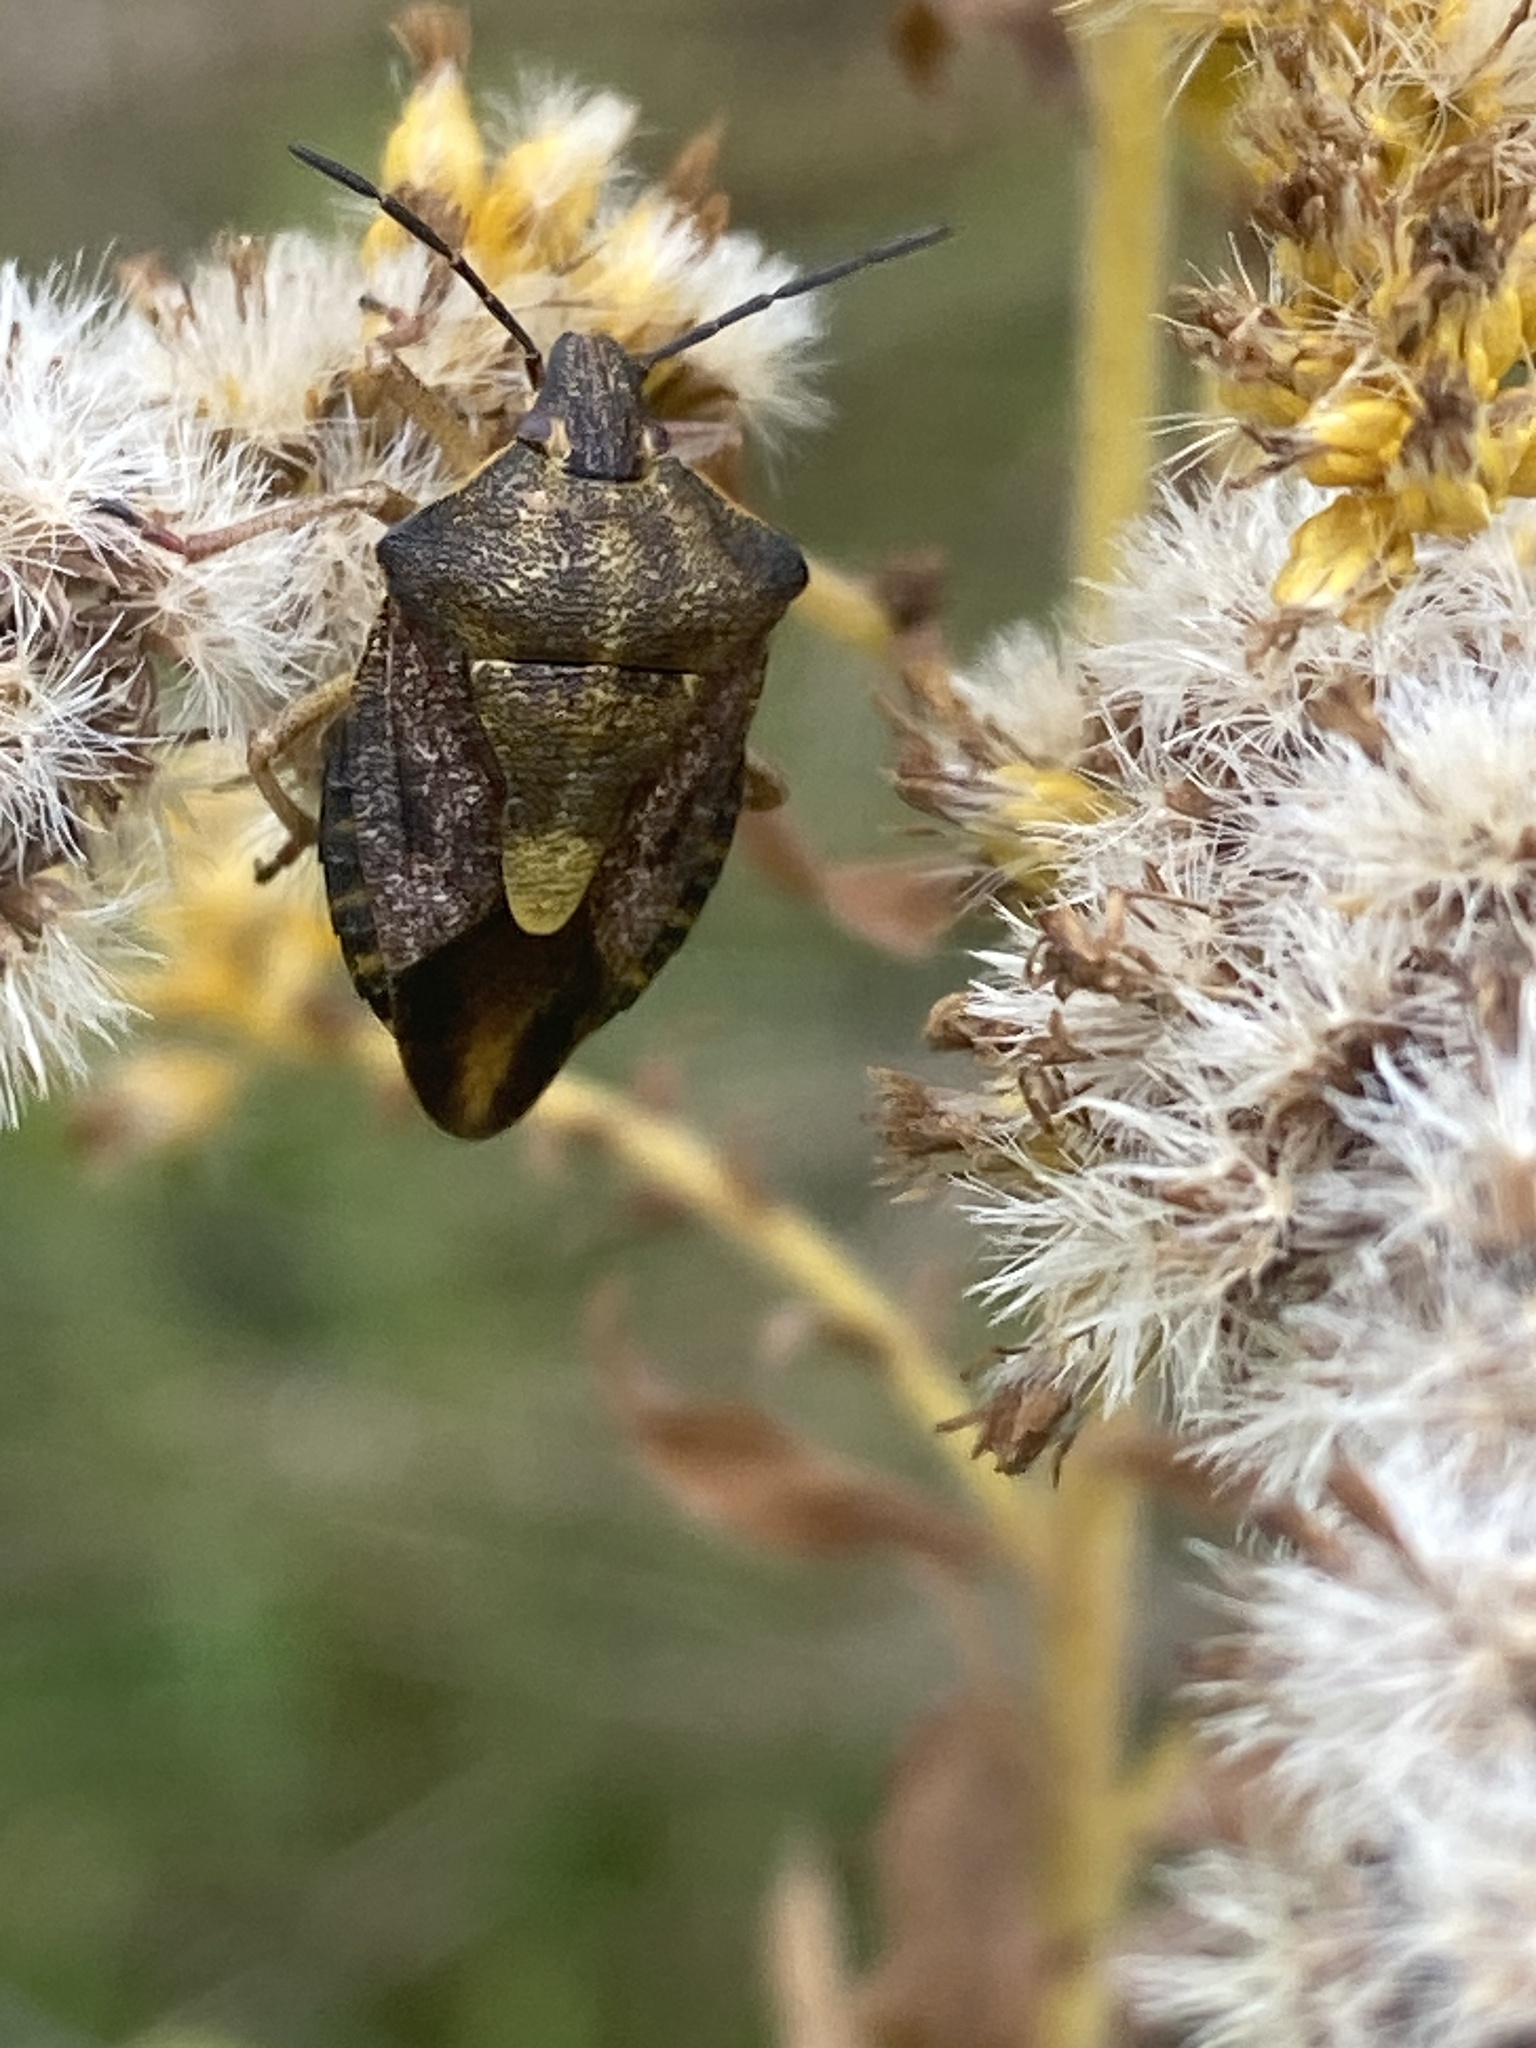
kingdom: Animalia
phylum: Arthropoda
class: Insecta
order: Hemiptera
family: Pentatomidae
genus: Carpocoris
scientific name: Carpocoris purpureipennis
